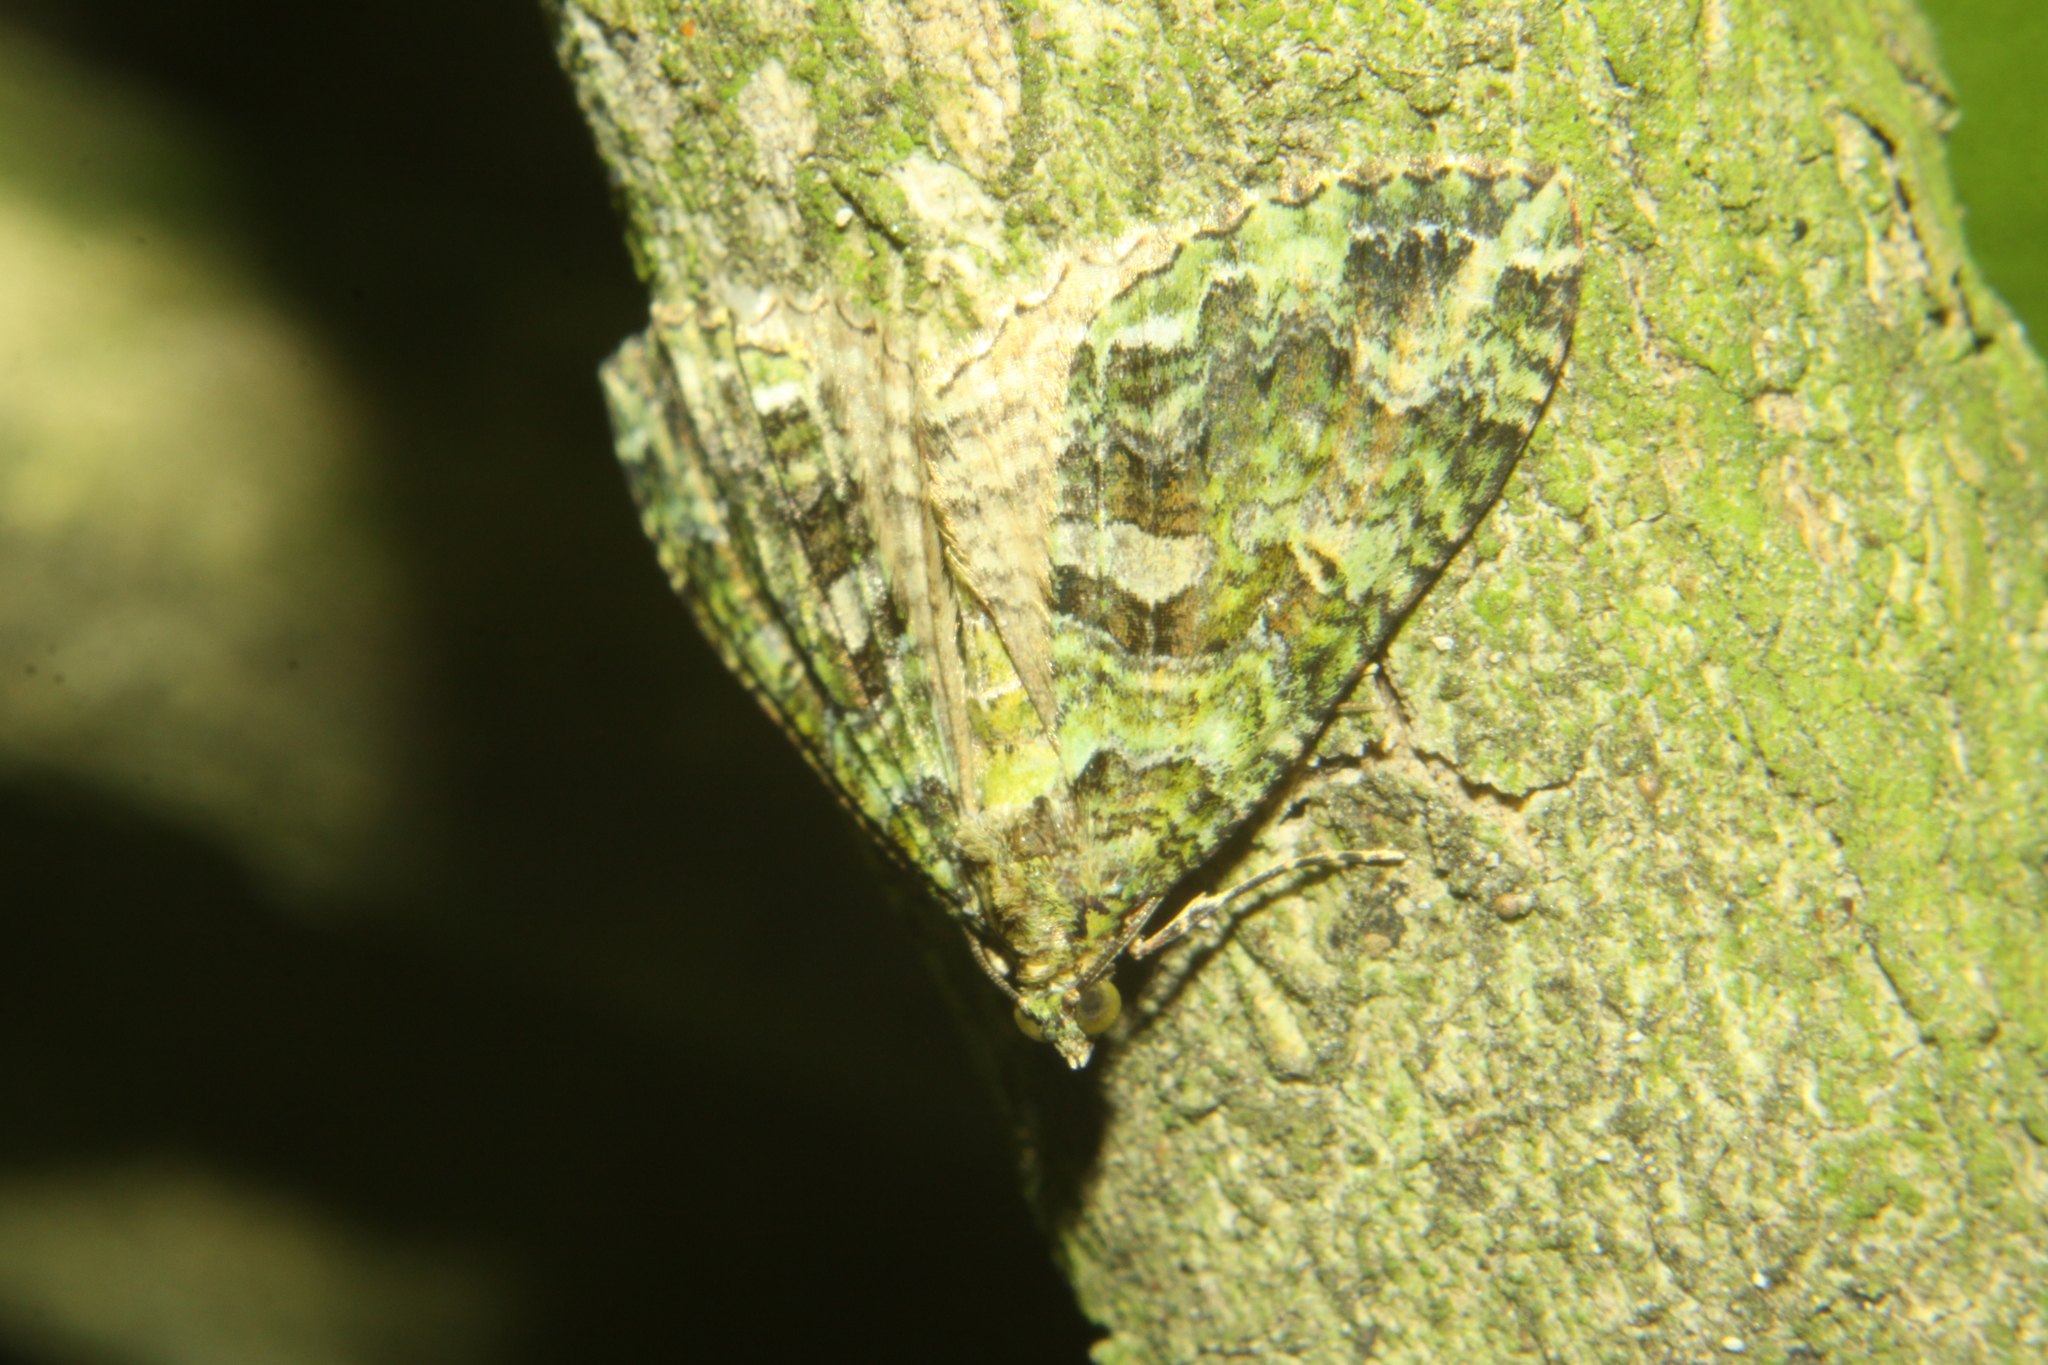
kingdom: Animalia
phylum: Arthropoda
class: Insecta
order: Lepidoptera
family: Geometridae
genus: Austrocidaria
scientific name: Austrocidaria similata
